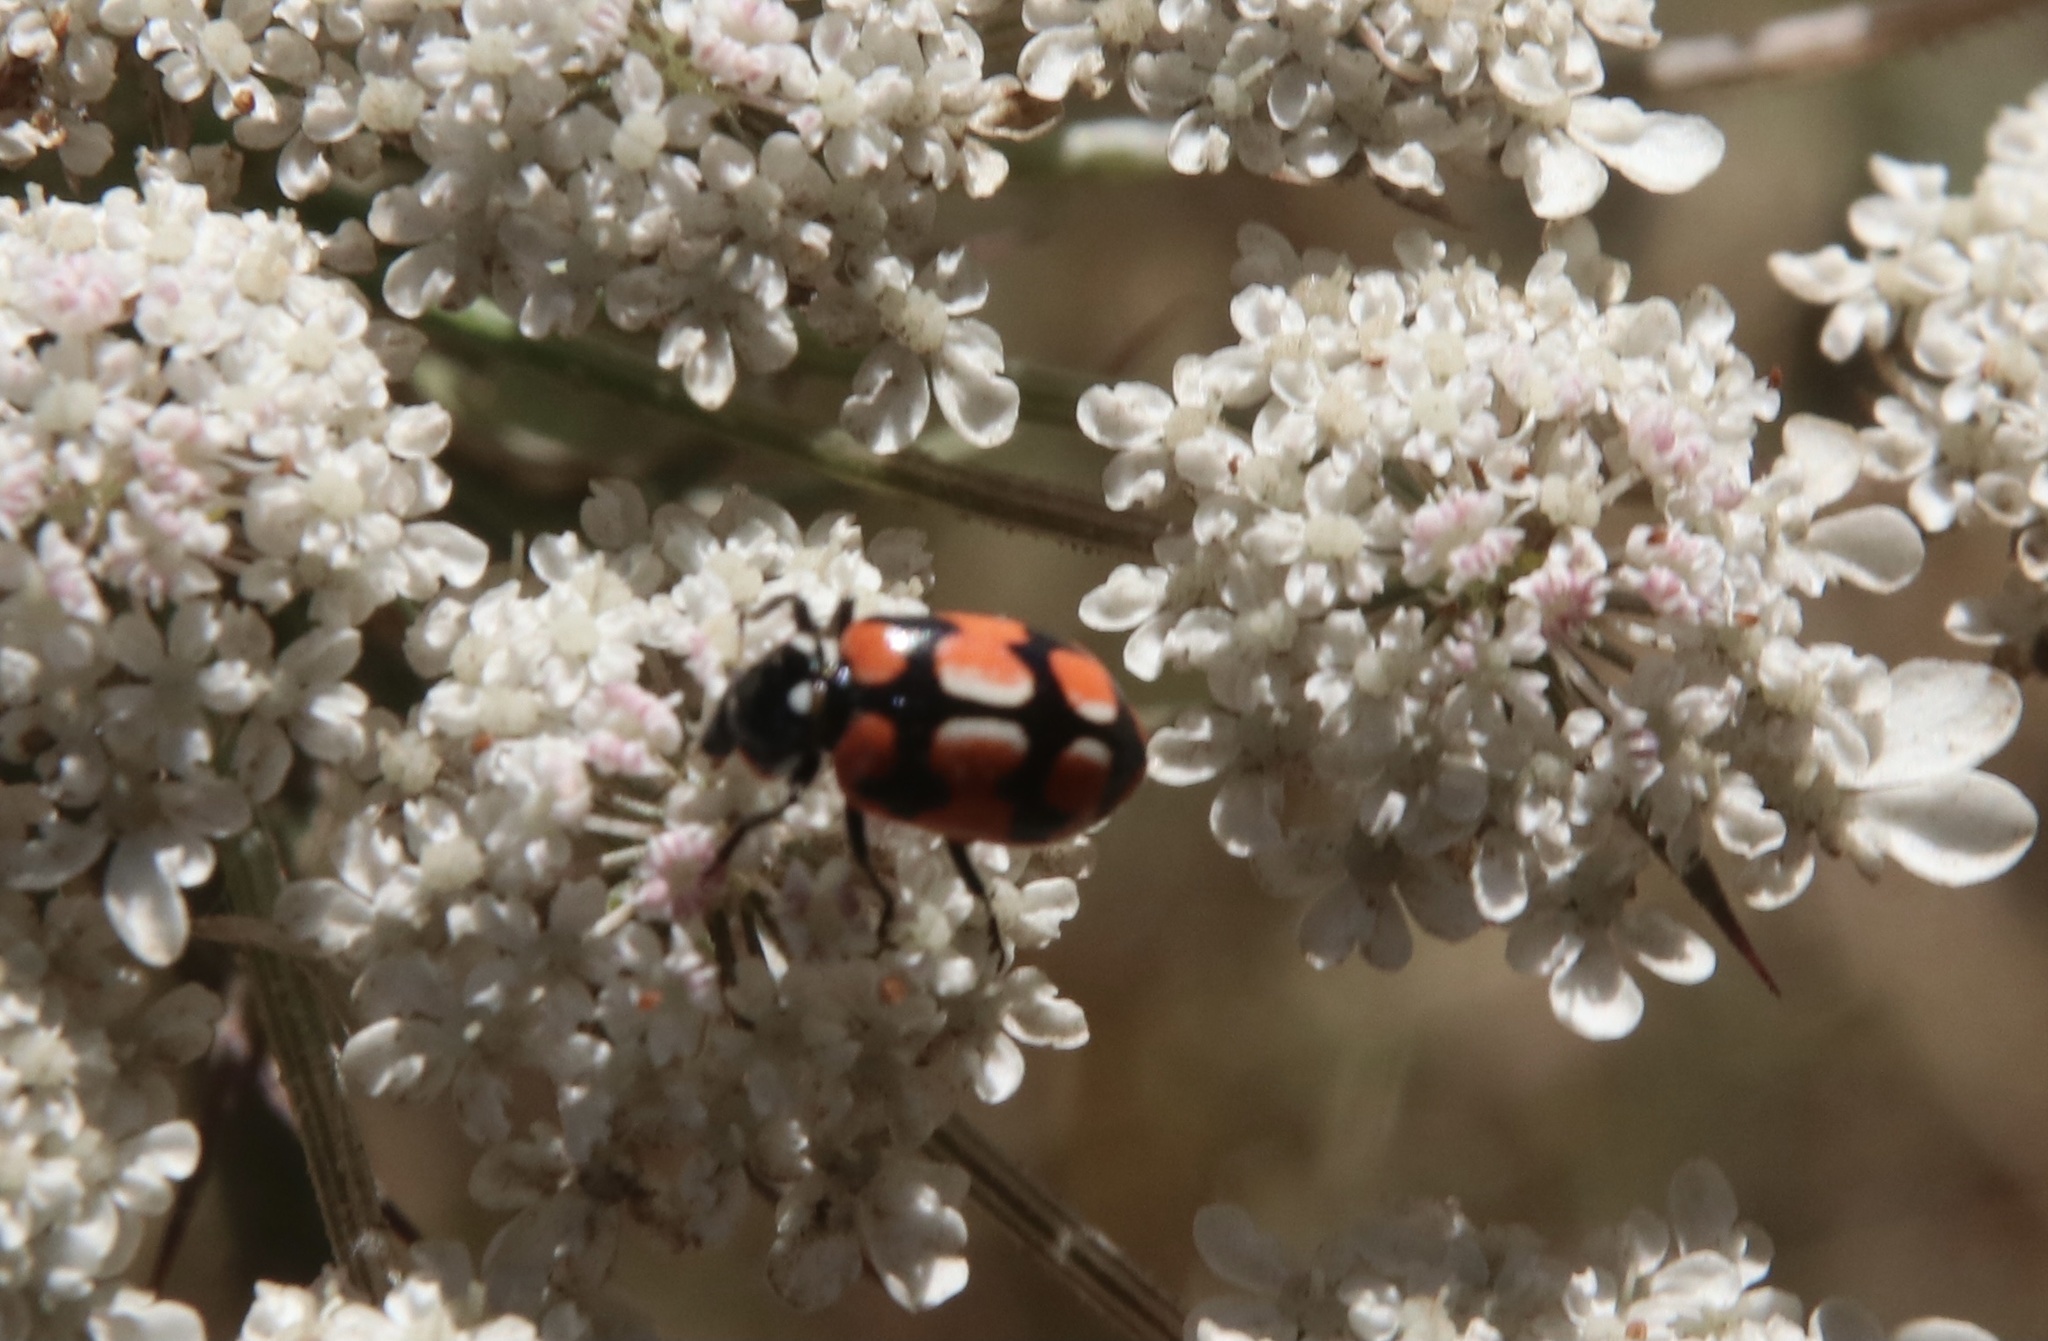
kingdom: Animalia
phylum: Arthropoda
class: Insecta
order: Coleoptera
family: Coccinellidae
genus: Eriopis
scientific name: Eriopis chilensis
